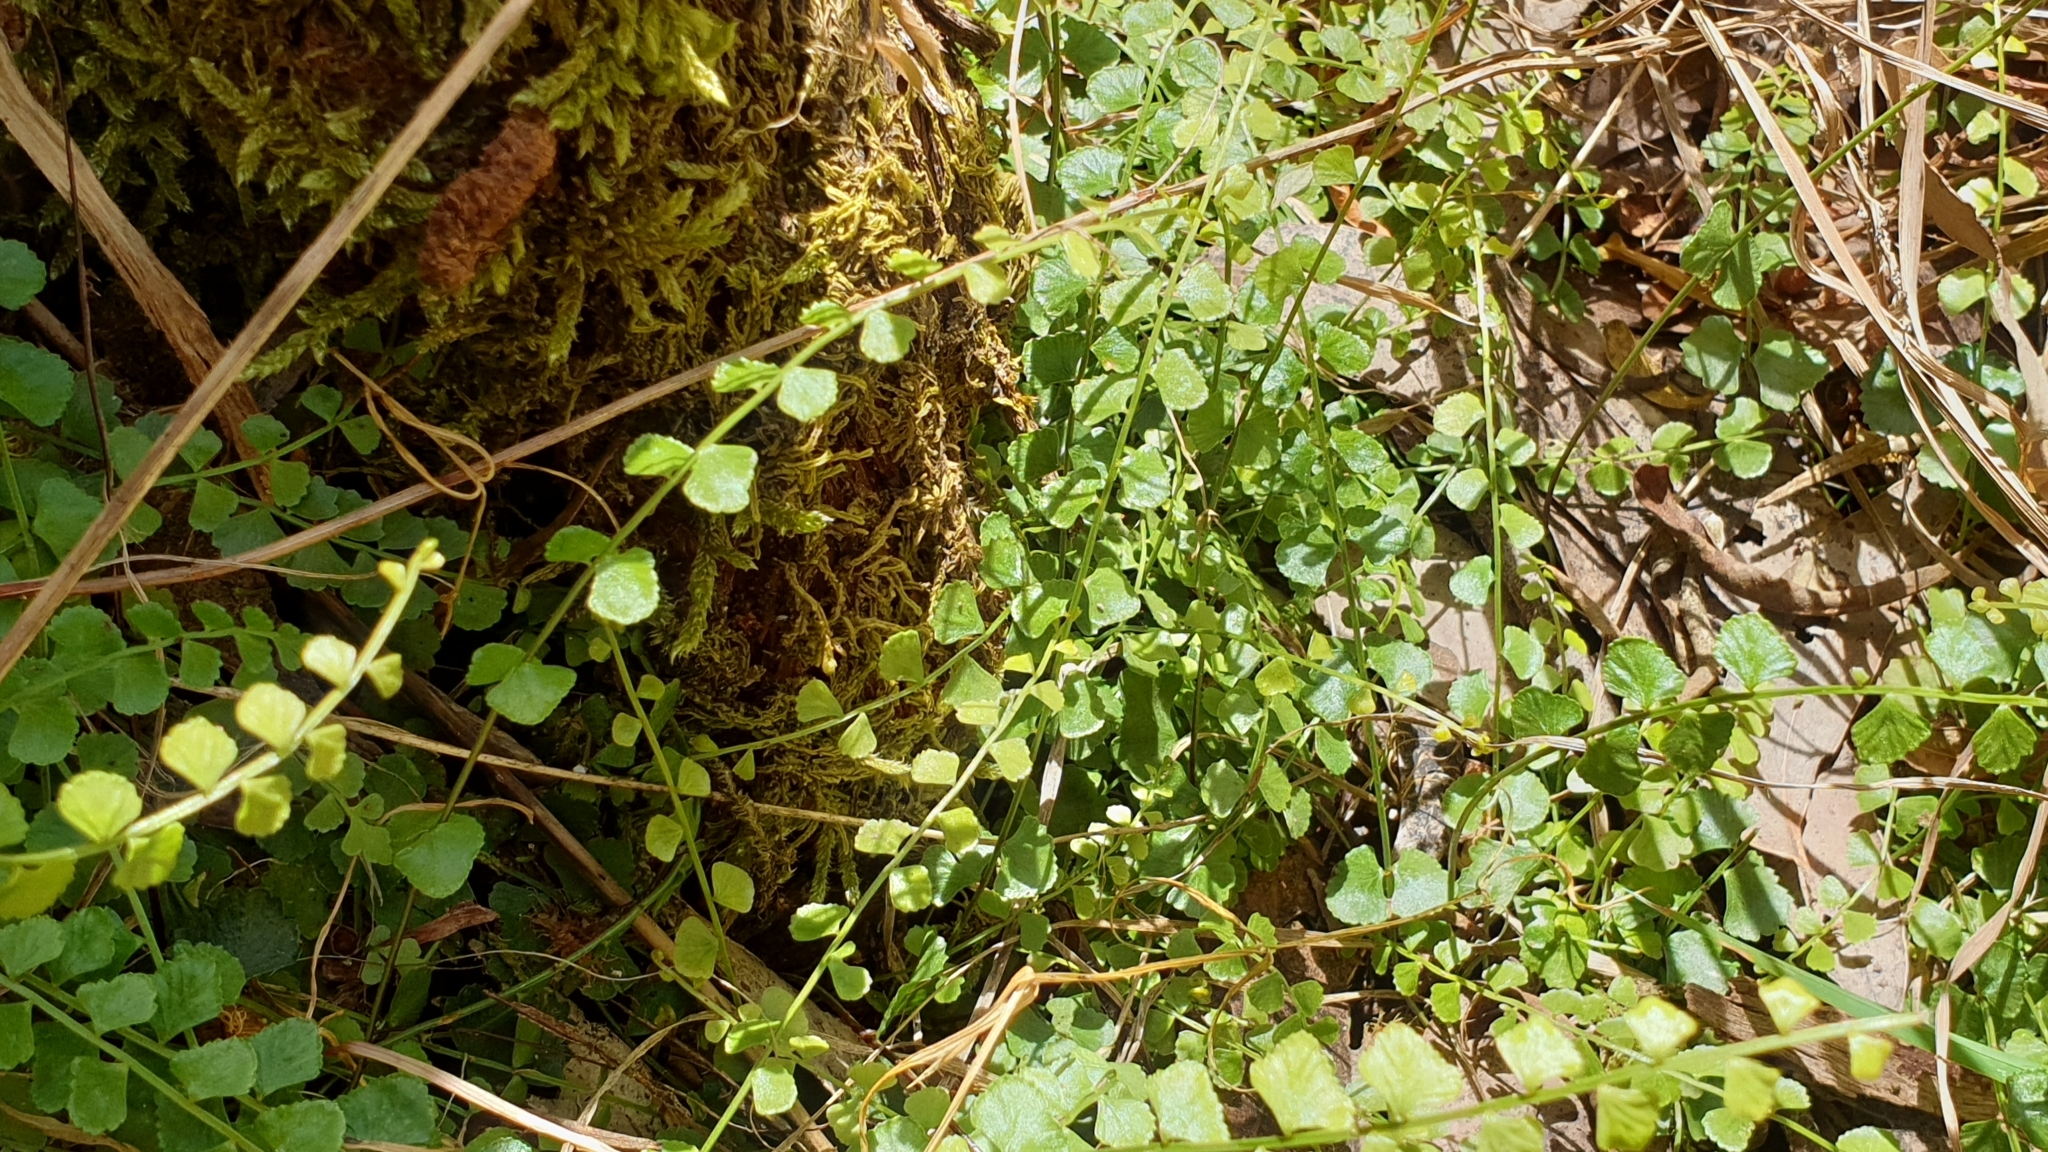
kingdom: Plantae
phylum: Tracheophyta
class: Polypodiopsida
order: Polypodiales
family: Aspleniaceae
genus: Asplenium
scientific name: Asplenium flabellifolium
